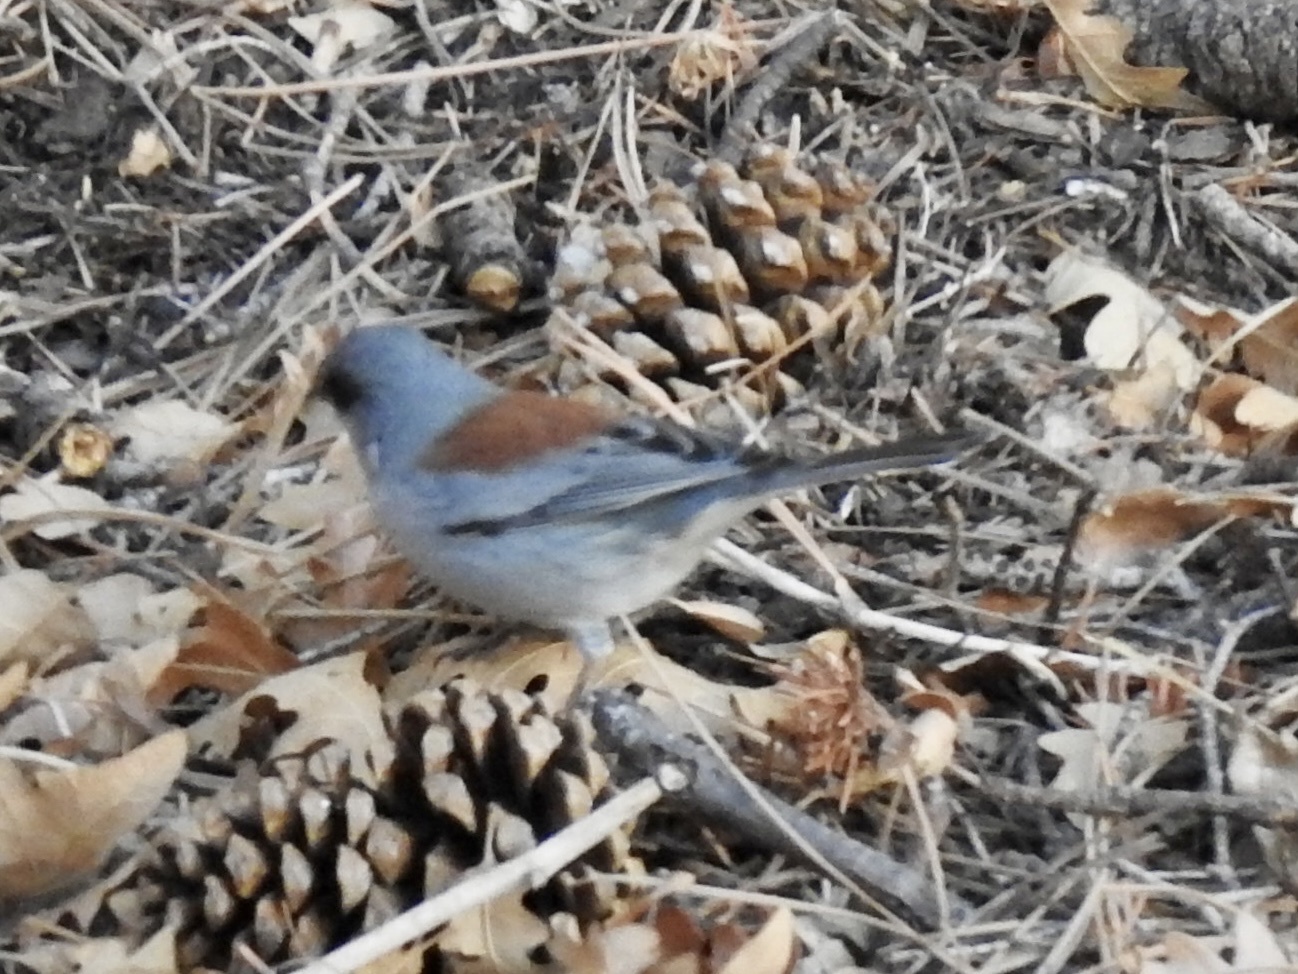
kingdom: Animalia
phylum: Chordata
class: Aves
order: Passeriformes
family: Passerellidae
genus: Junco
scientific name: Junco hyemalis
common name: Dark-eyed junco
